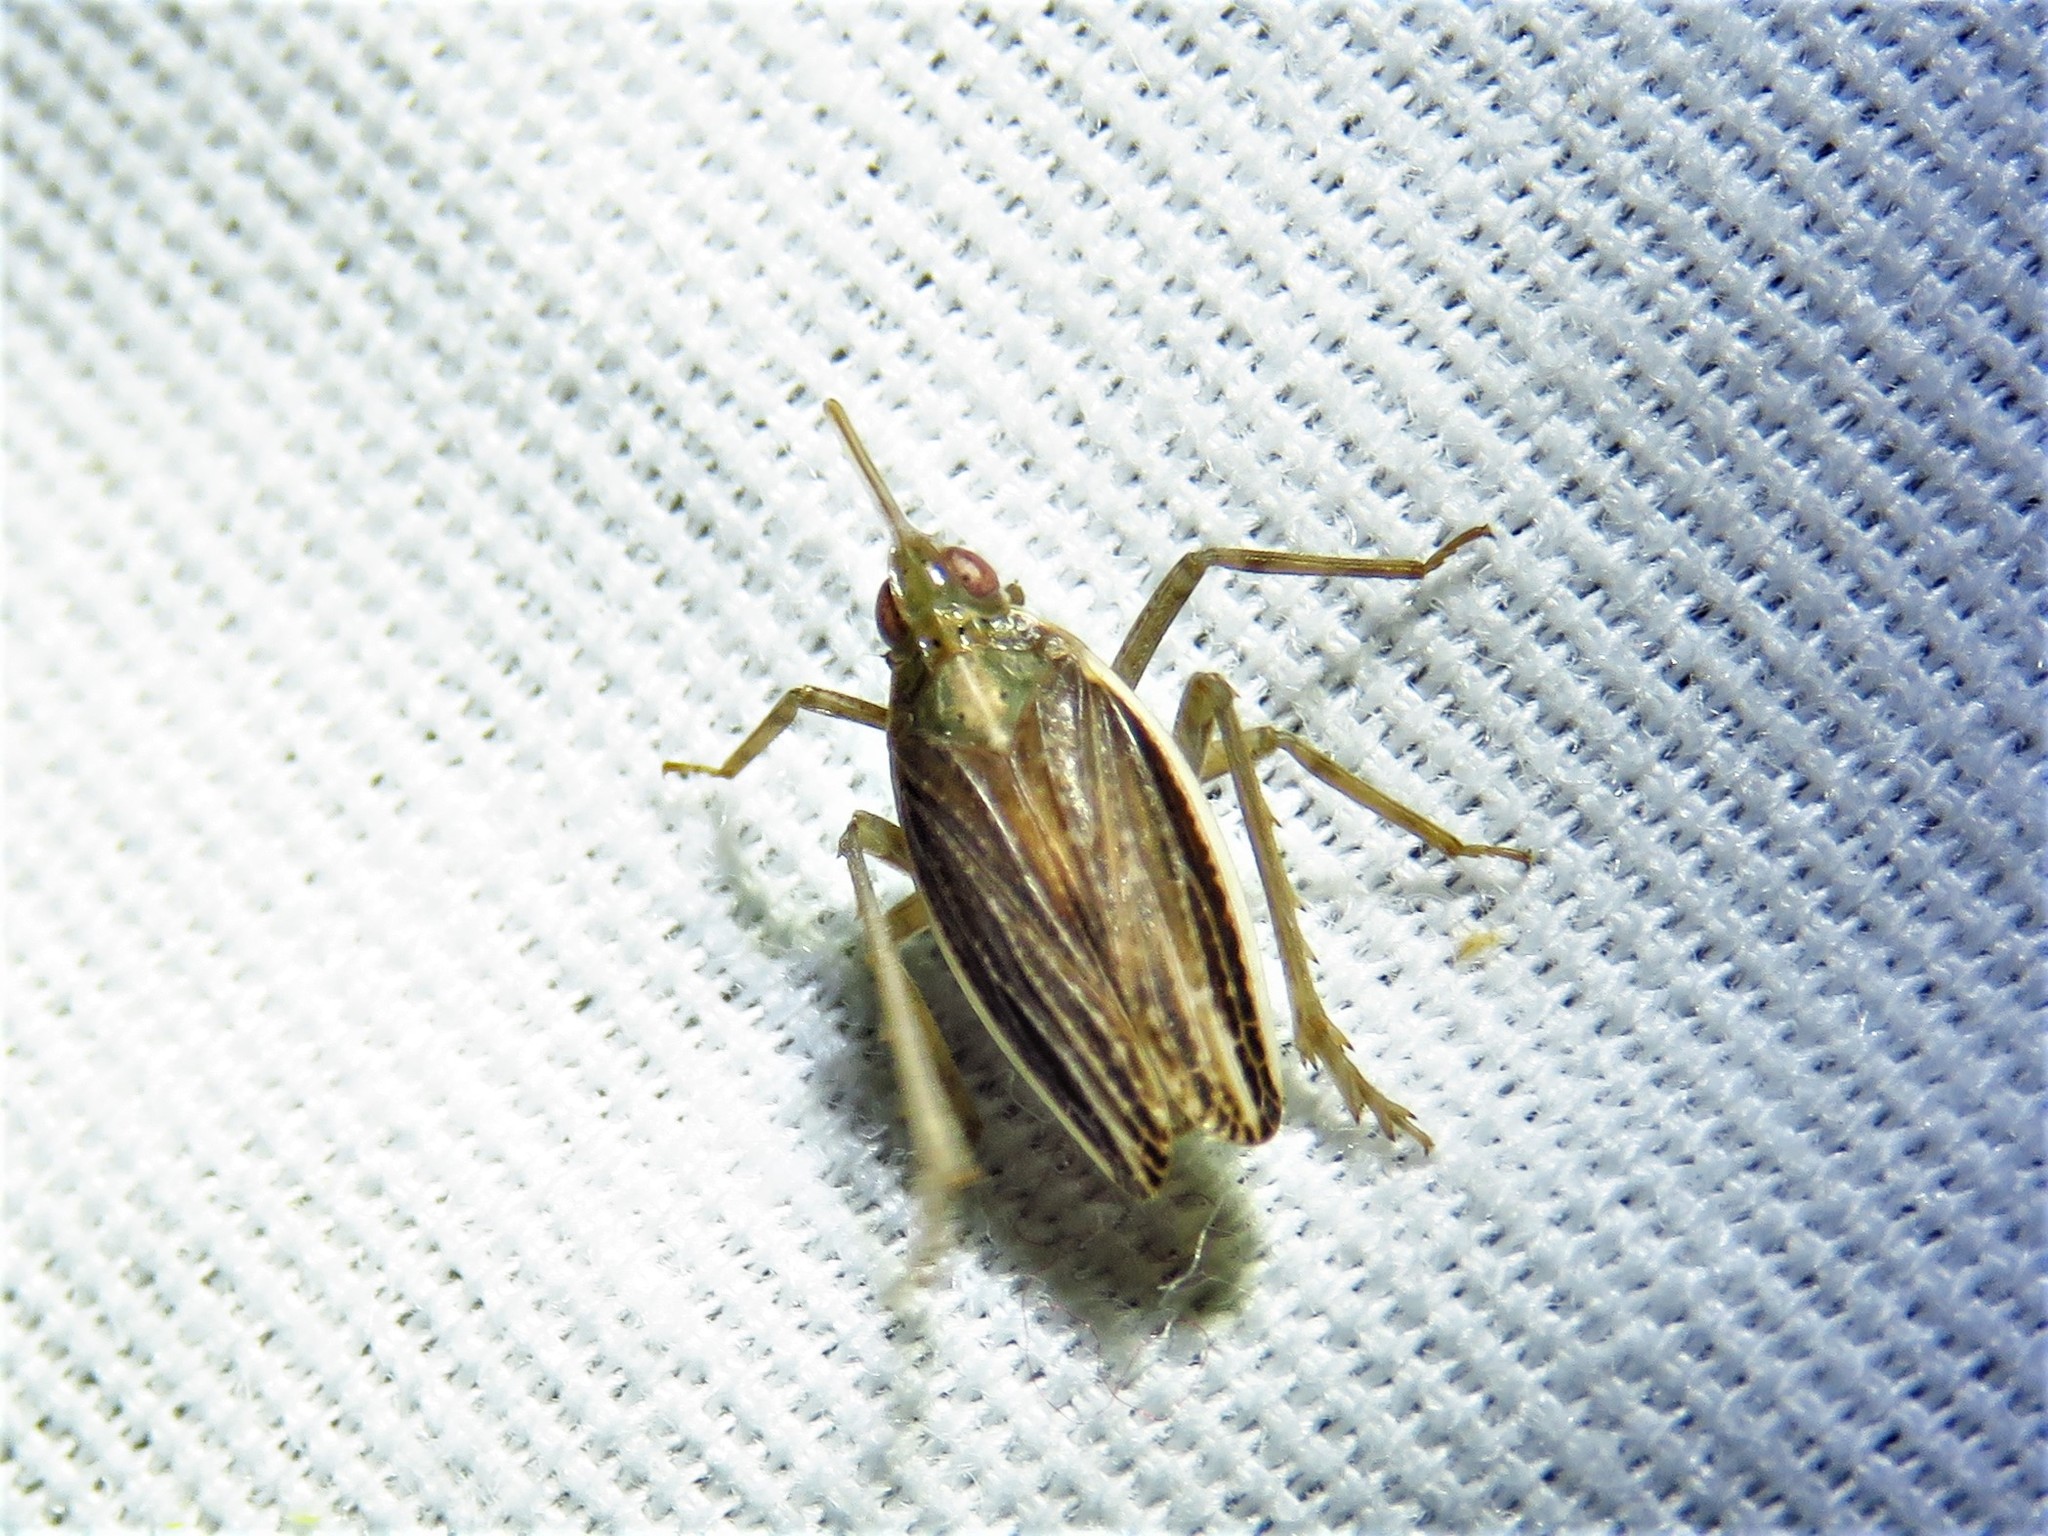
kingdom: Animalia
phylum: Arthropoda
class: Insecta
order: Hemiptera
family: Dictyopharidae
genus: Scolops
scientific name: Scolops angustatus
